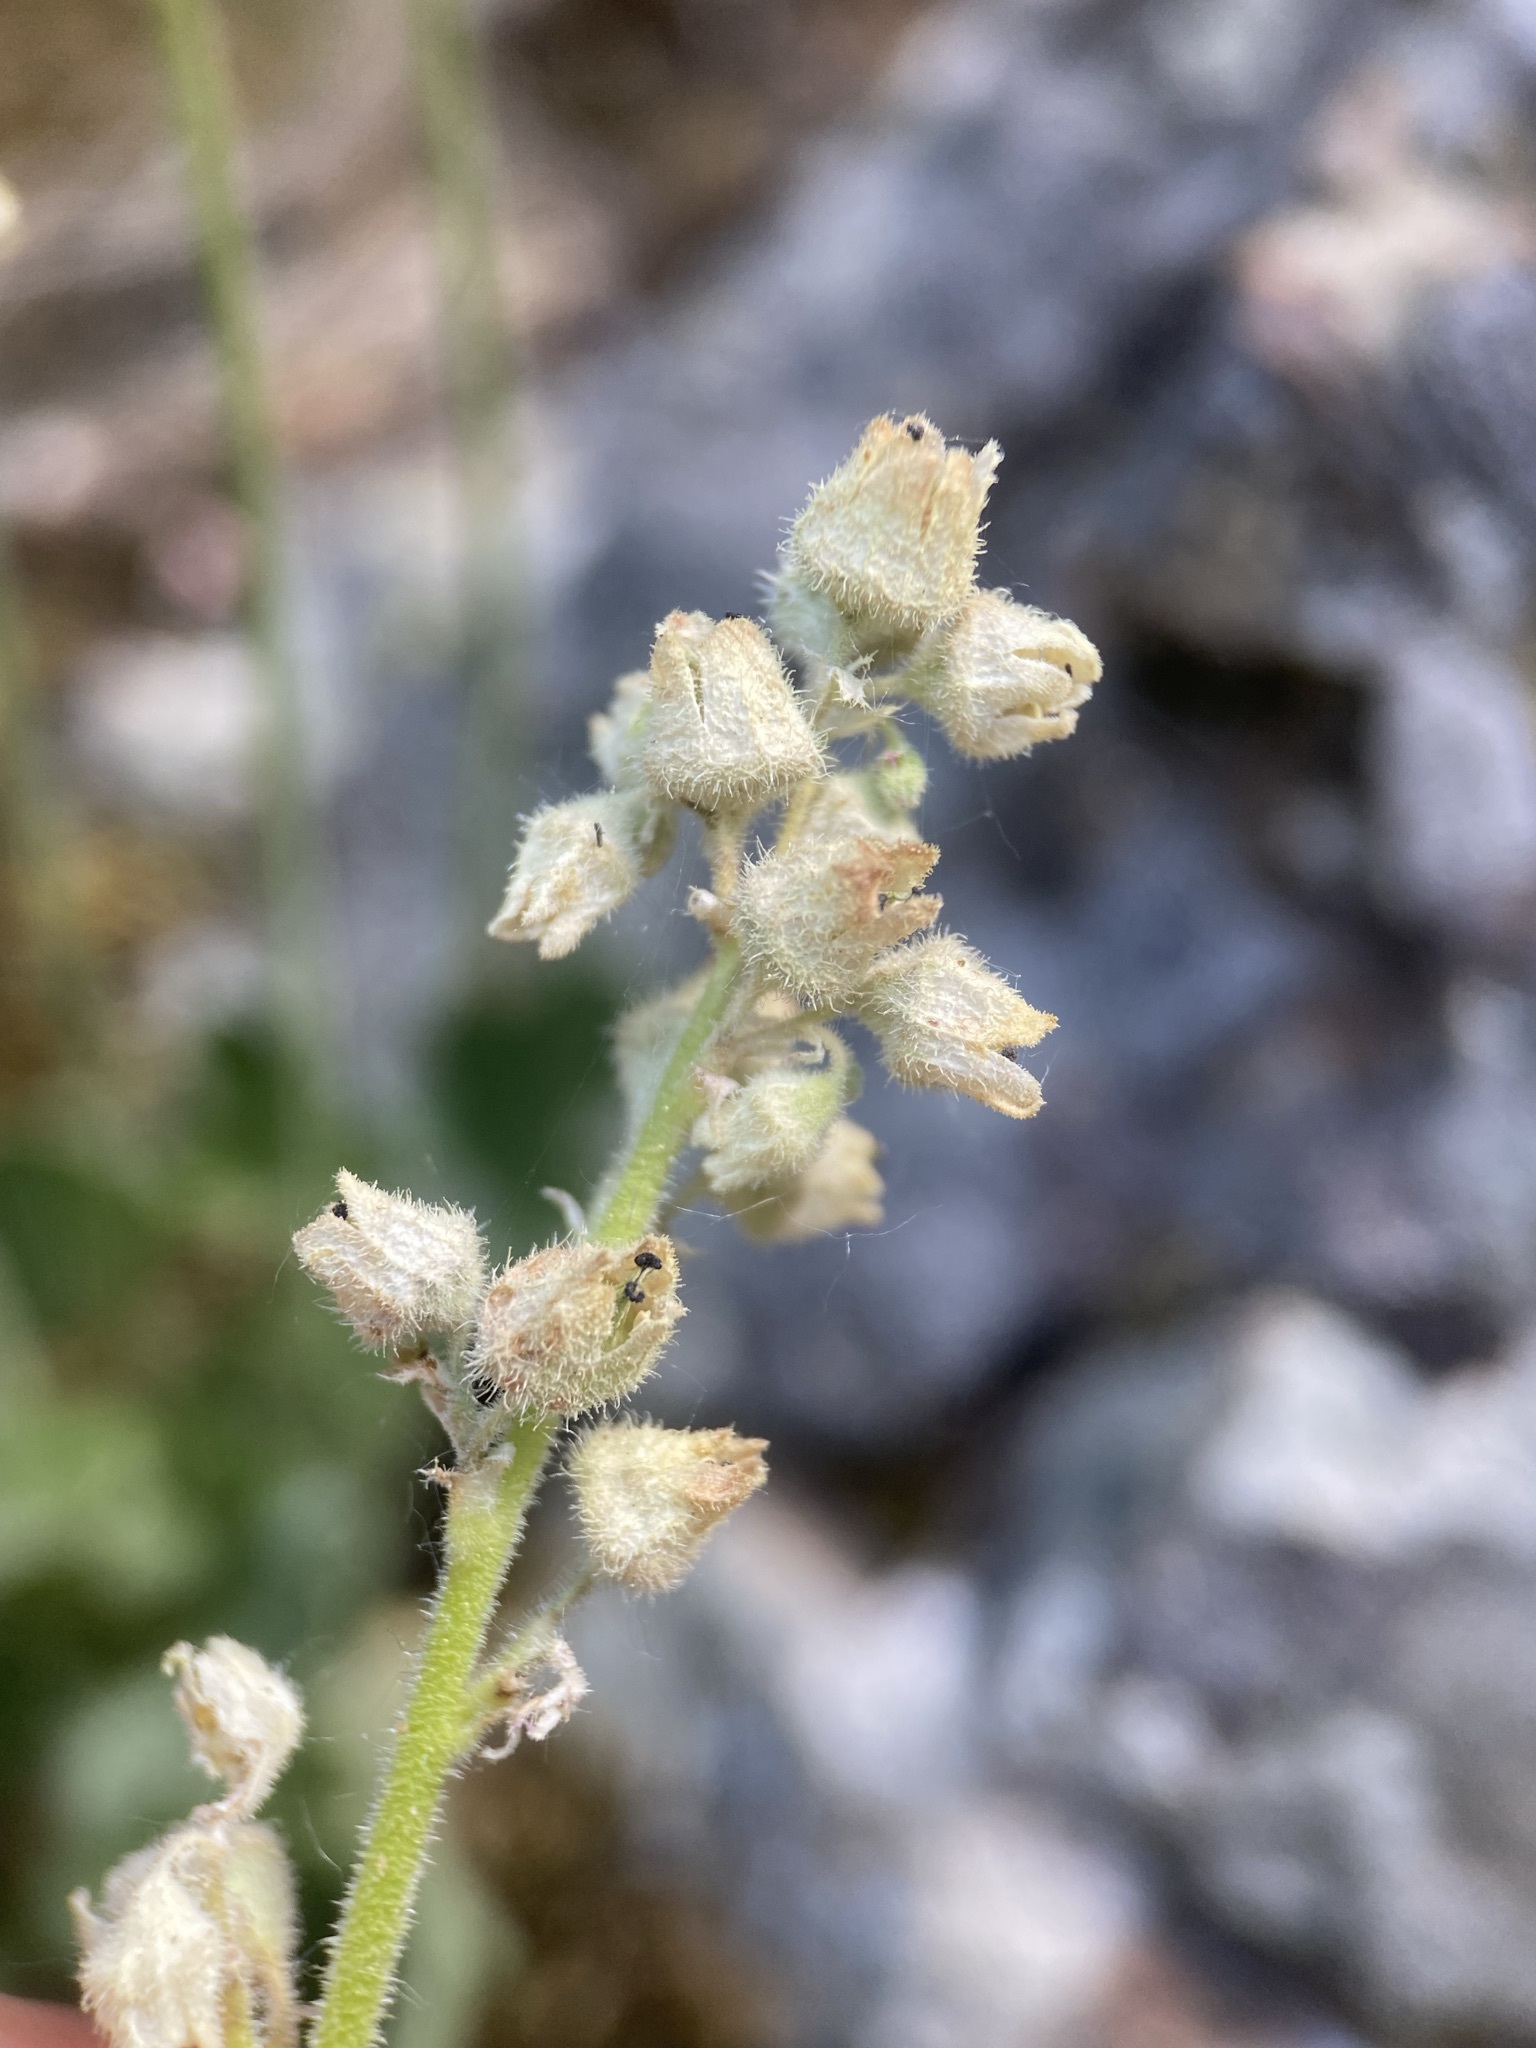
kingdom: Plantae
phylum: Tracheophyta
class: Magnoliopsida
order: Saxifragales
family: Saxifragaceae
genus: Heuchera
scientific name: Heuchera cylindrica
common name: Mat alumroot
